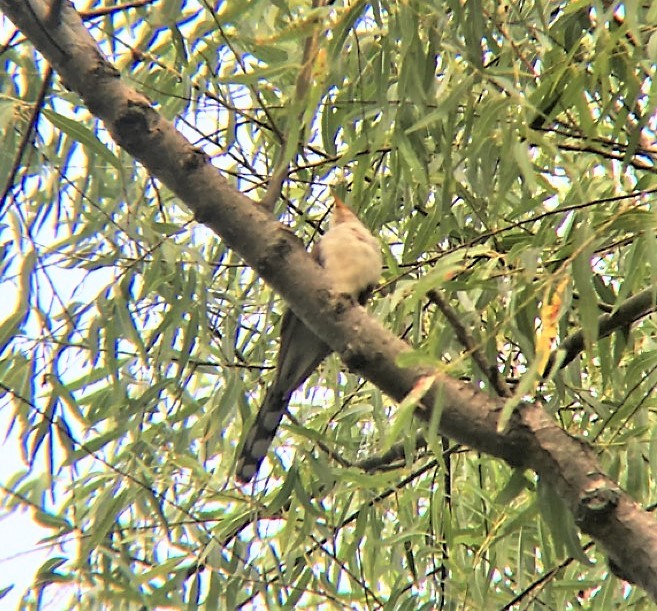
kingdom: Animalia
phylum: Chordata
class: Aves
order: Cuculiformes
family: Cuculidae
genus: Coccyzus
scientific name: Coccyzus americanus
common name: Yellow-billed cuckoo
